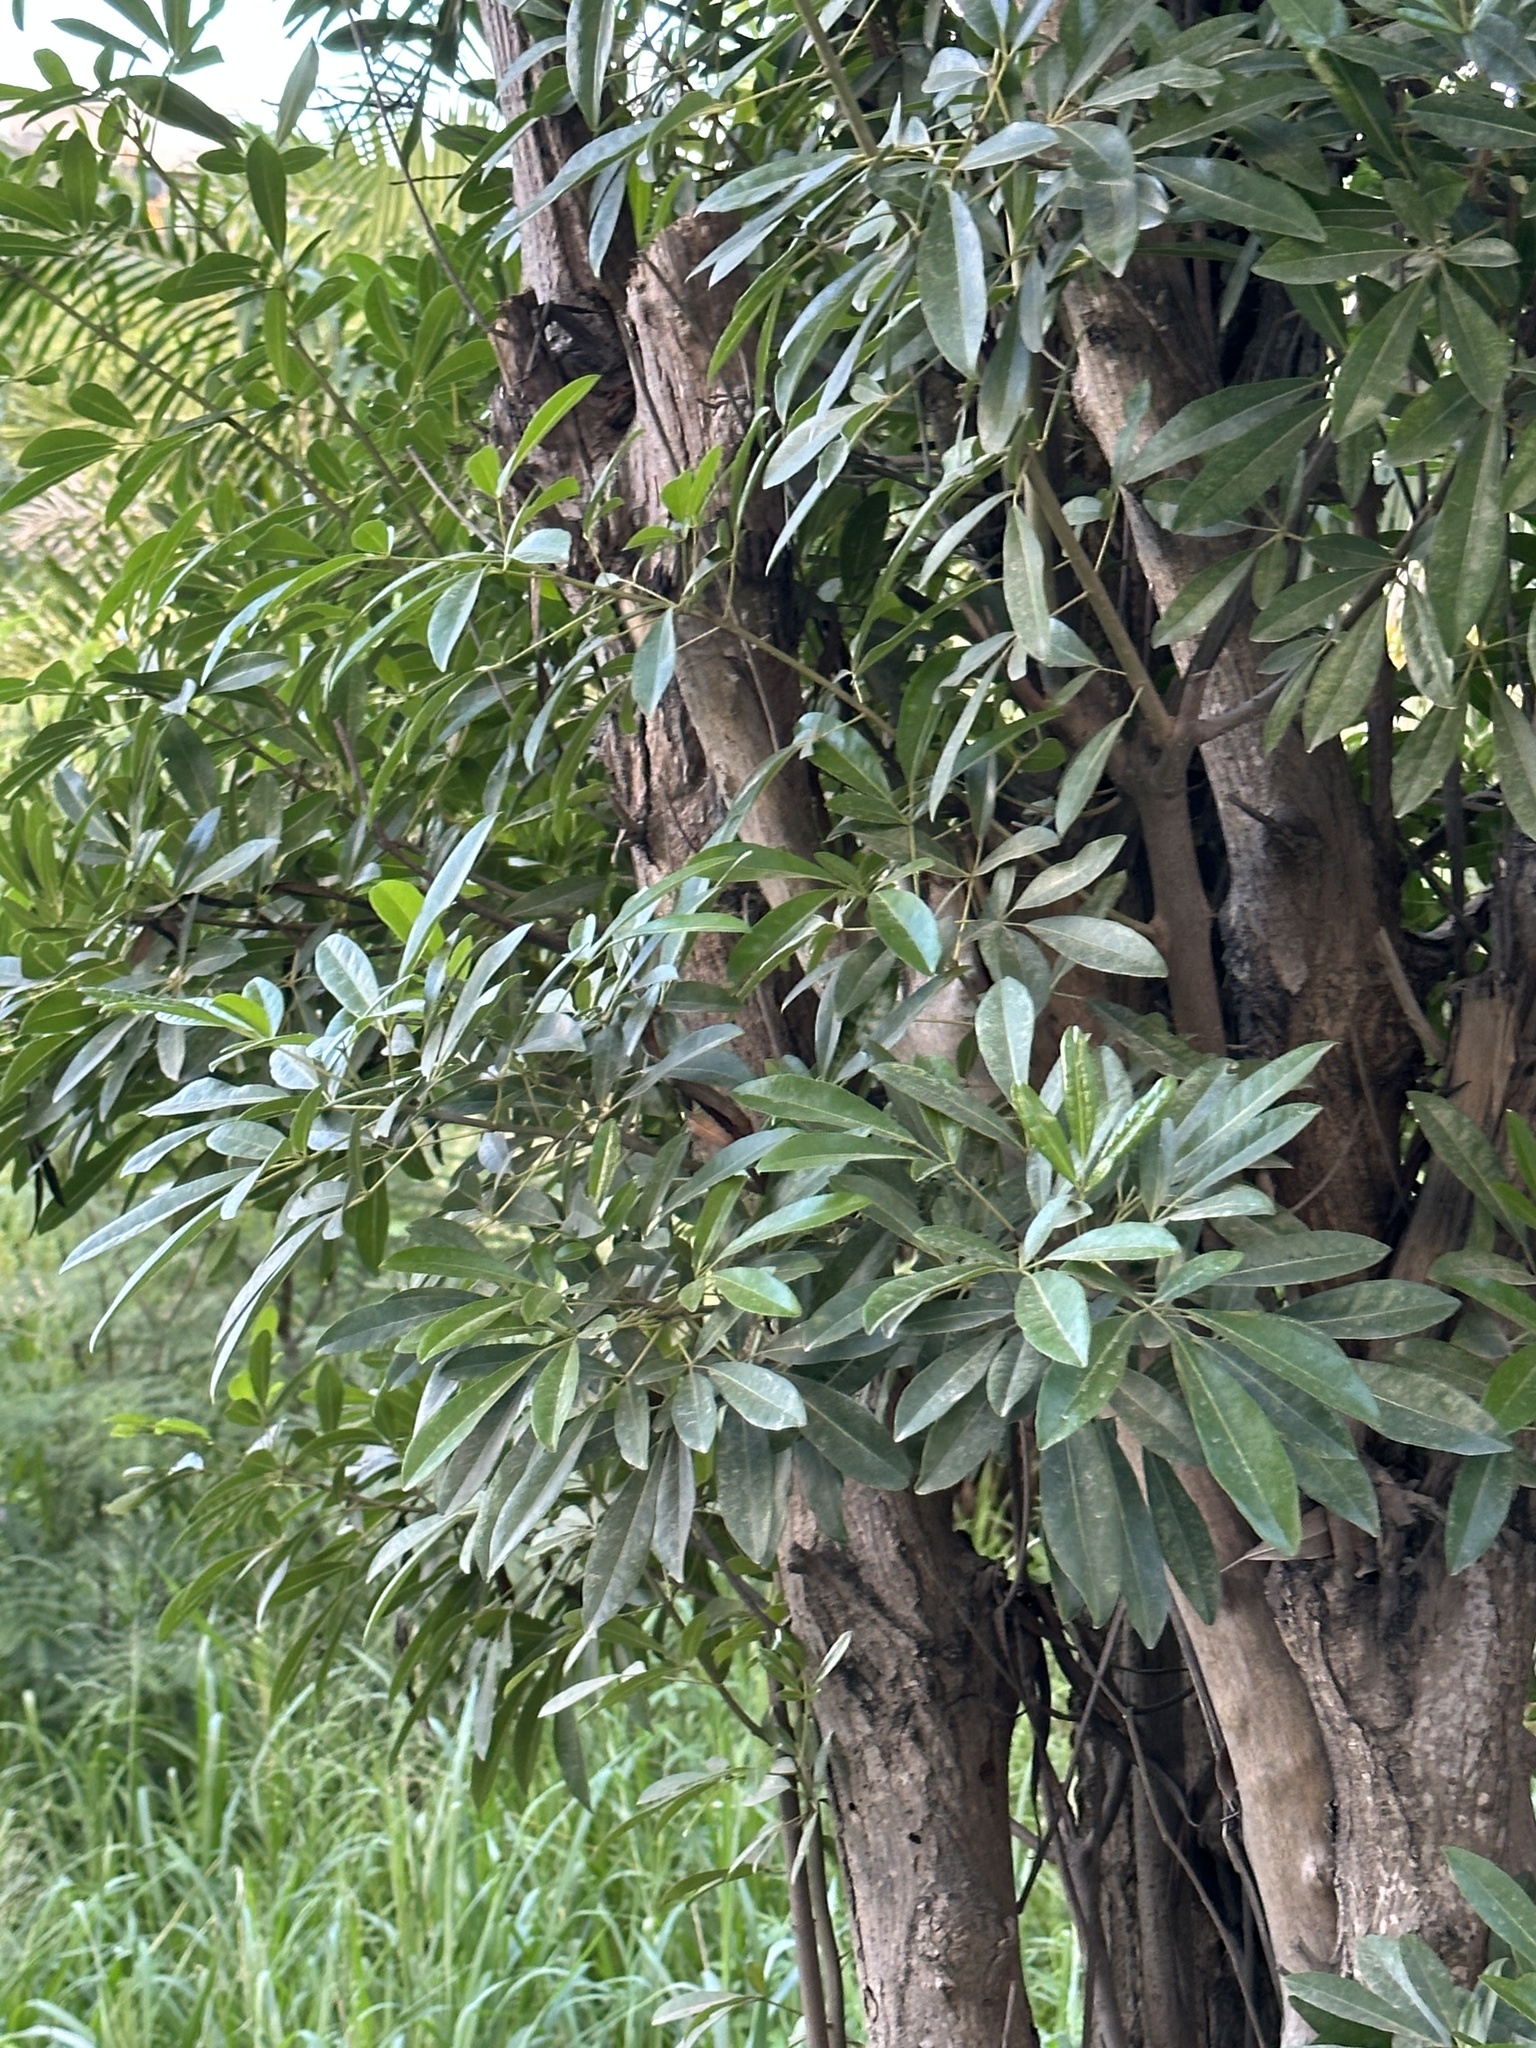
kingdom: Plantae
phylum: Tracheophyta
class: Magnoliopsida
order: Lamiales
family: Bignoniaceae
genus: Tabebuia
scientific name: Tabebuia heterophylla
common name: White cedar
